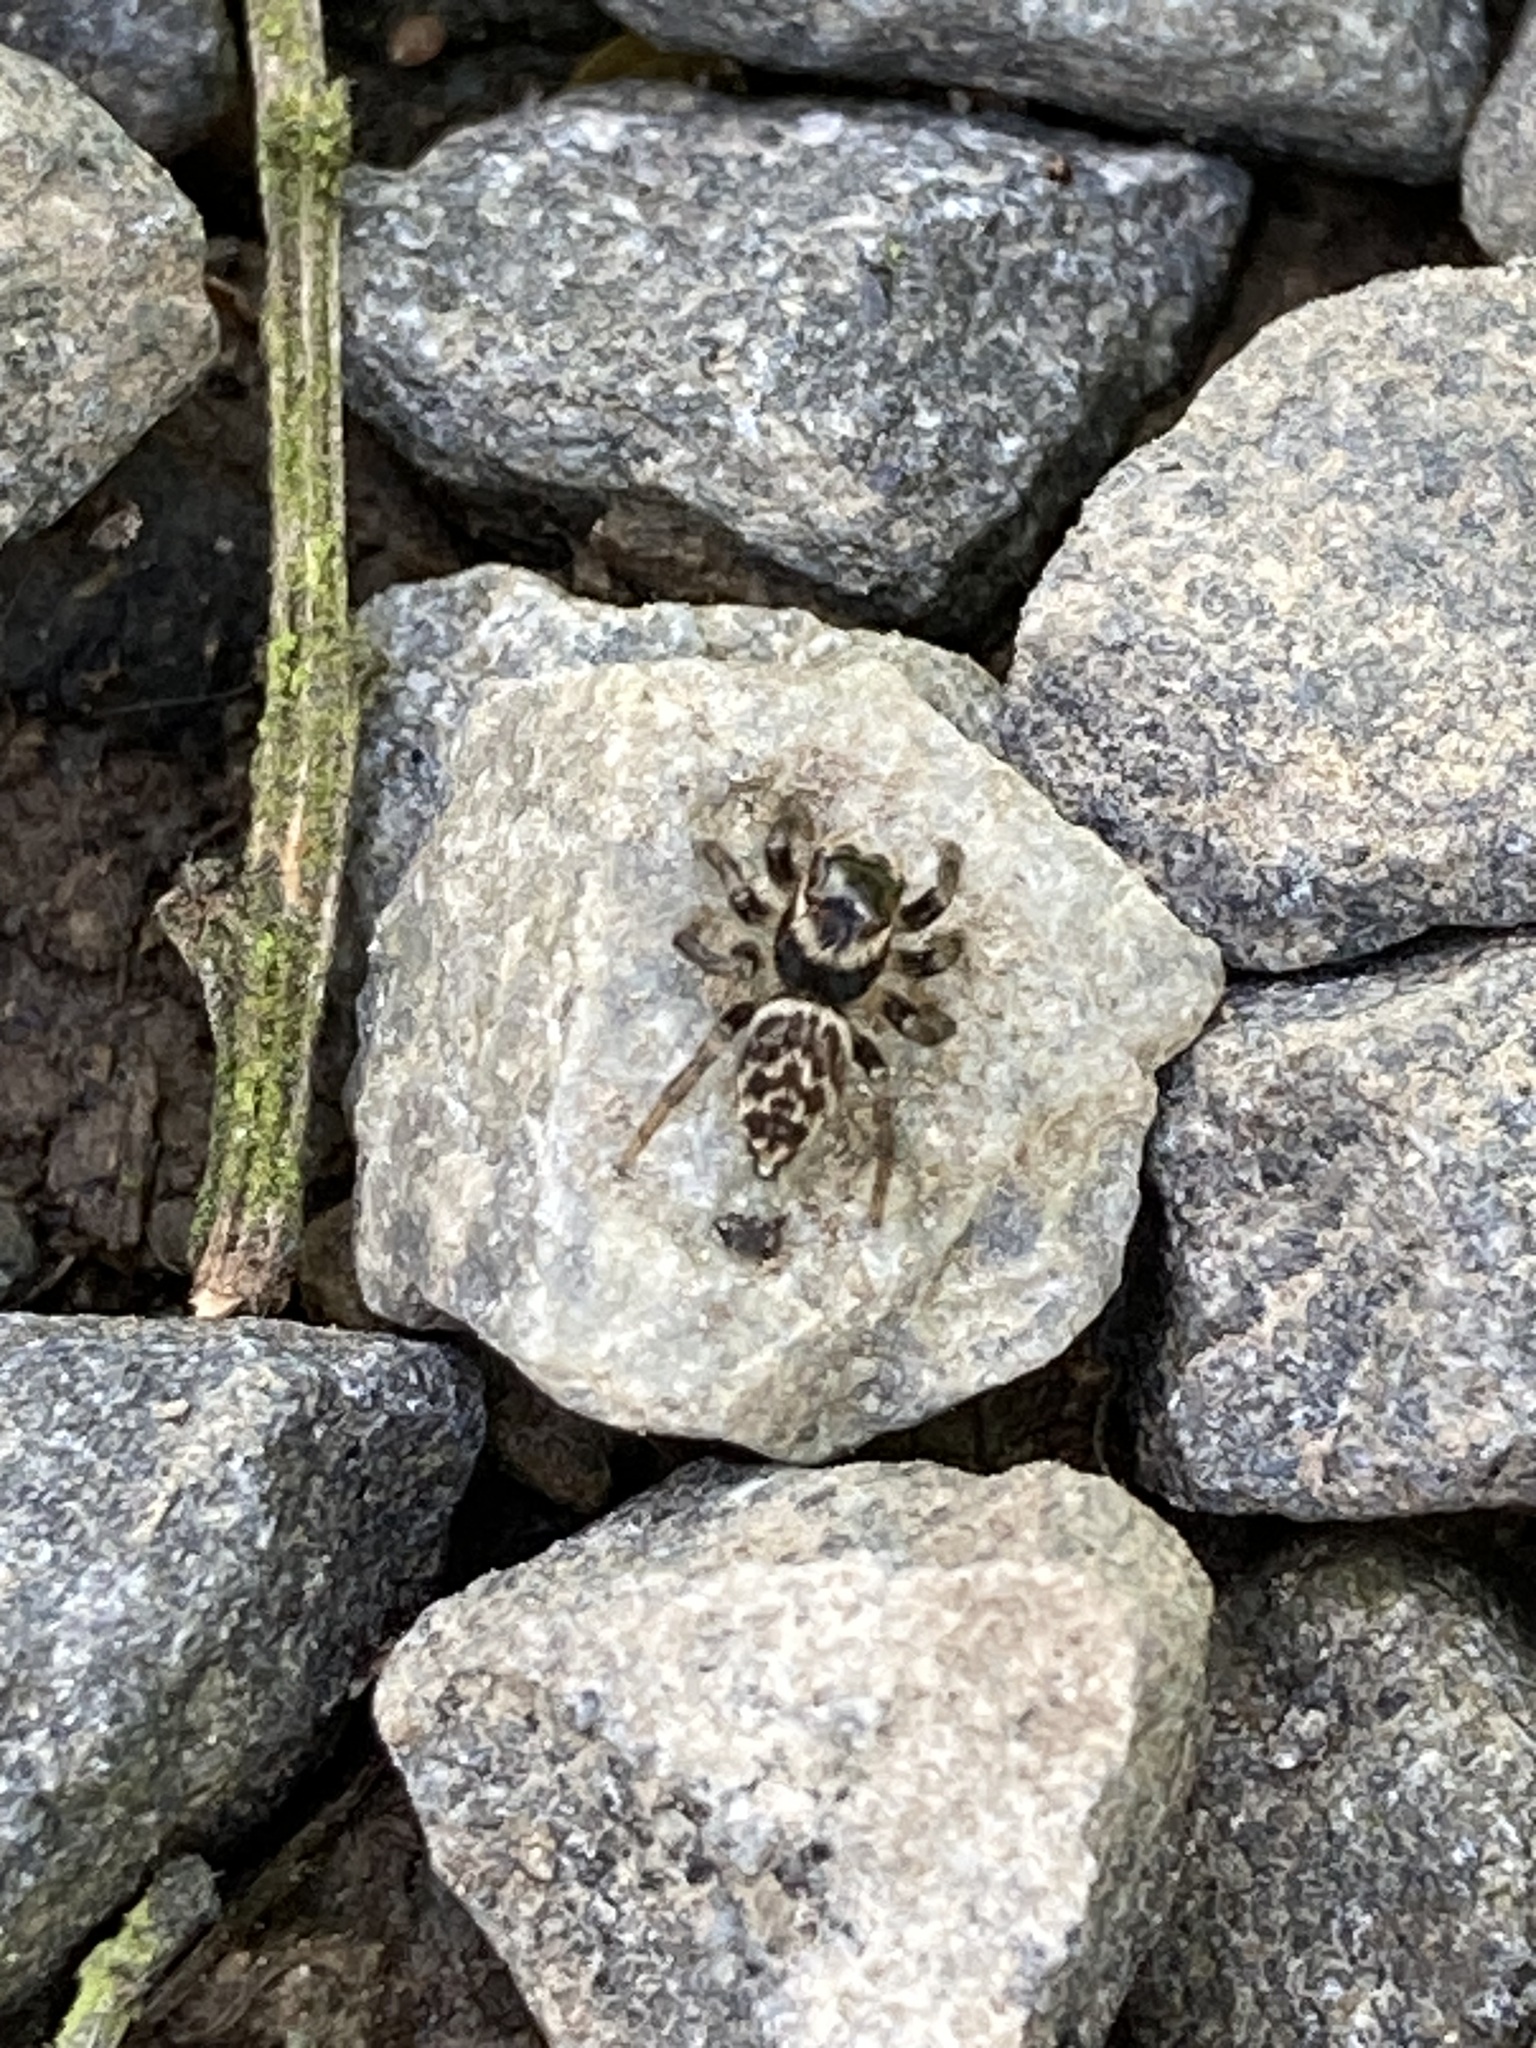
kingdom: Animalia
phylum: Arthropoda
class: Arachnida
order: Araneae
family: Salticidae
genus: Maratus
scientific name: Maratus griseus
